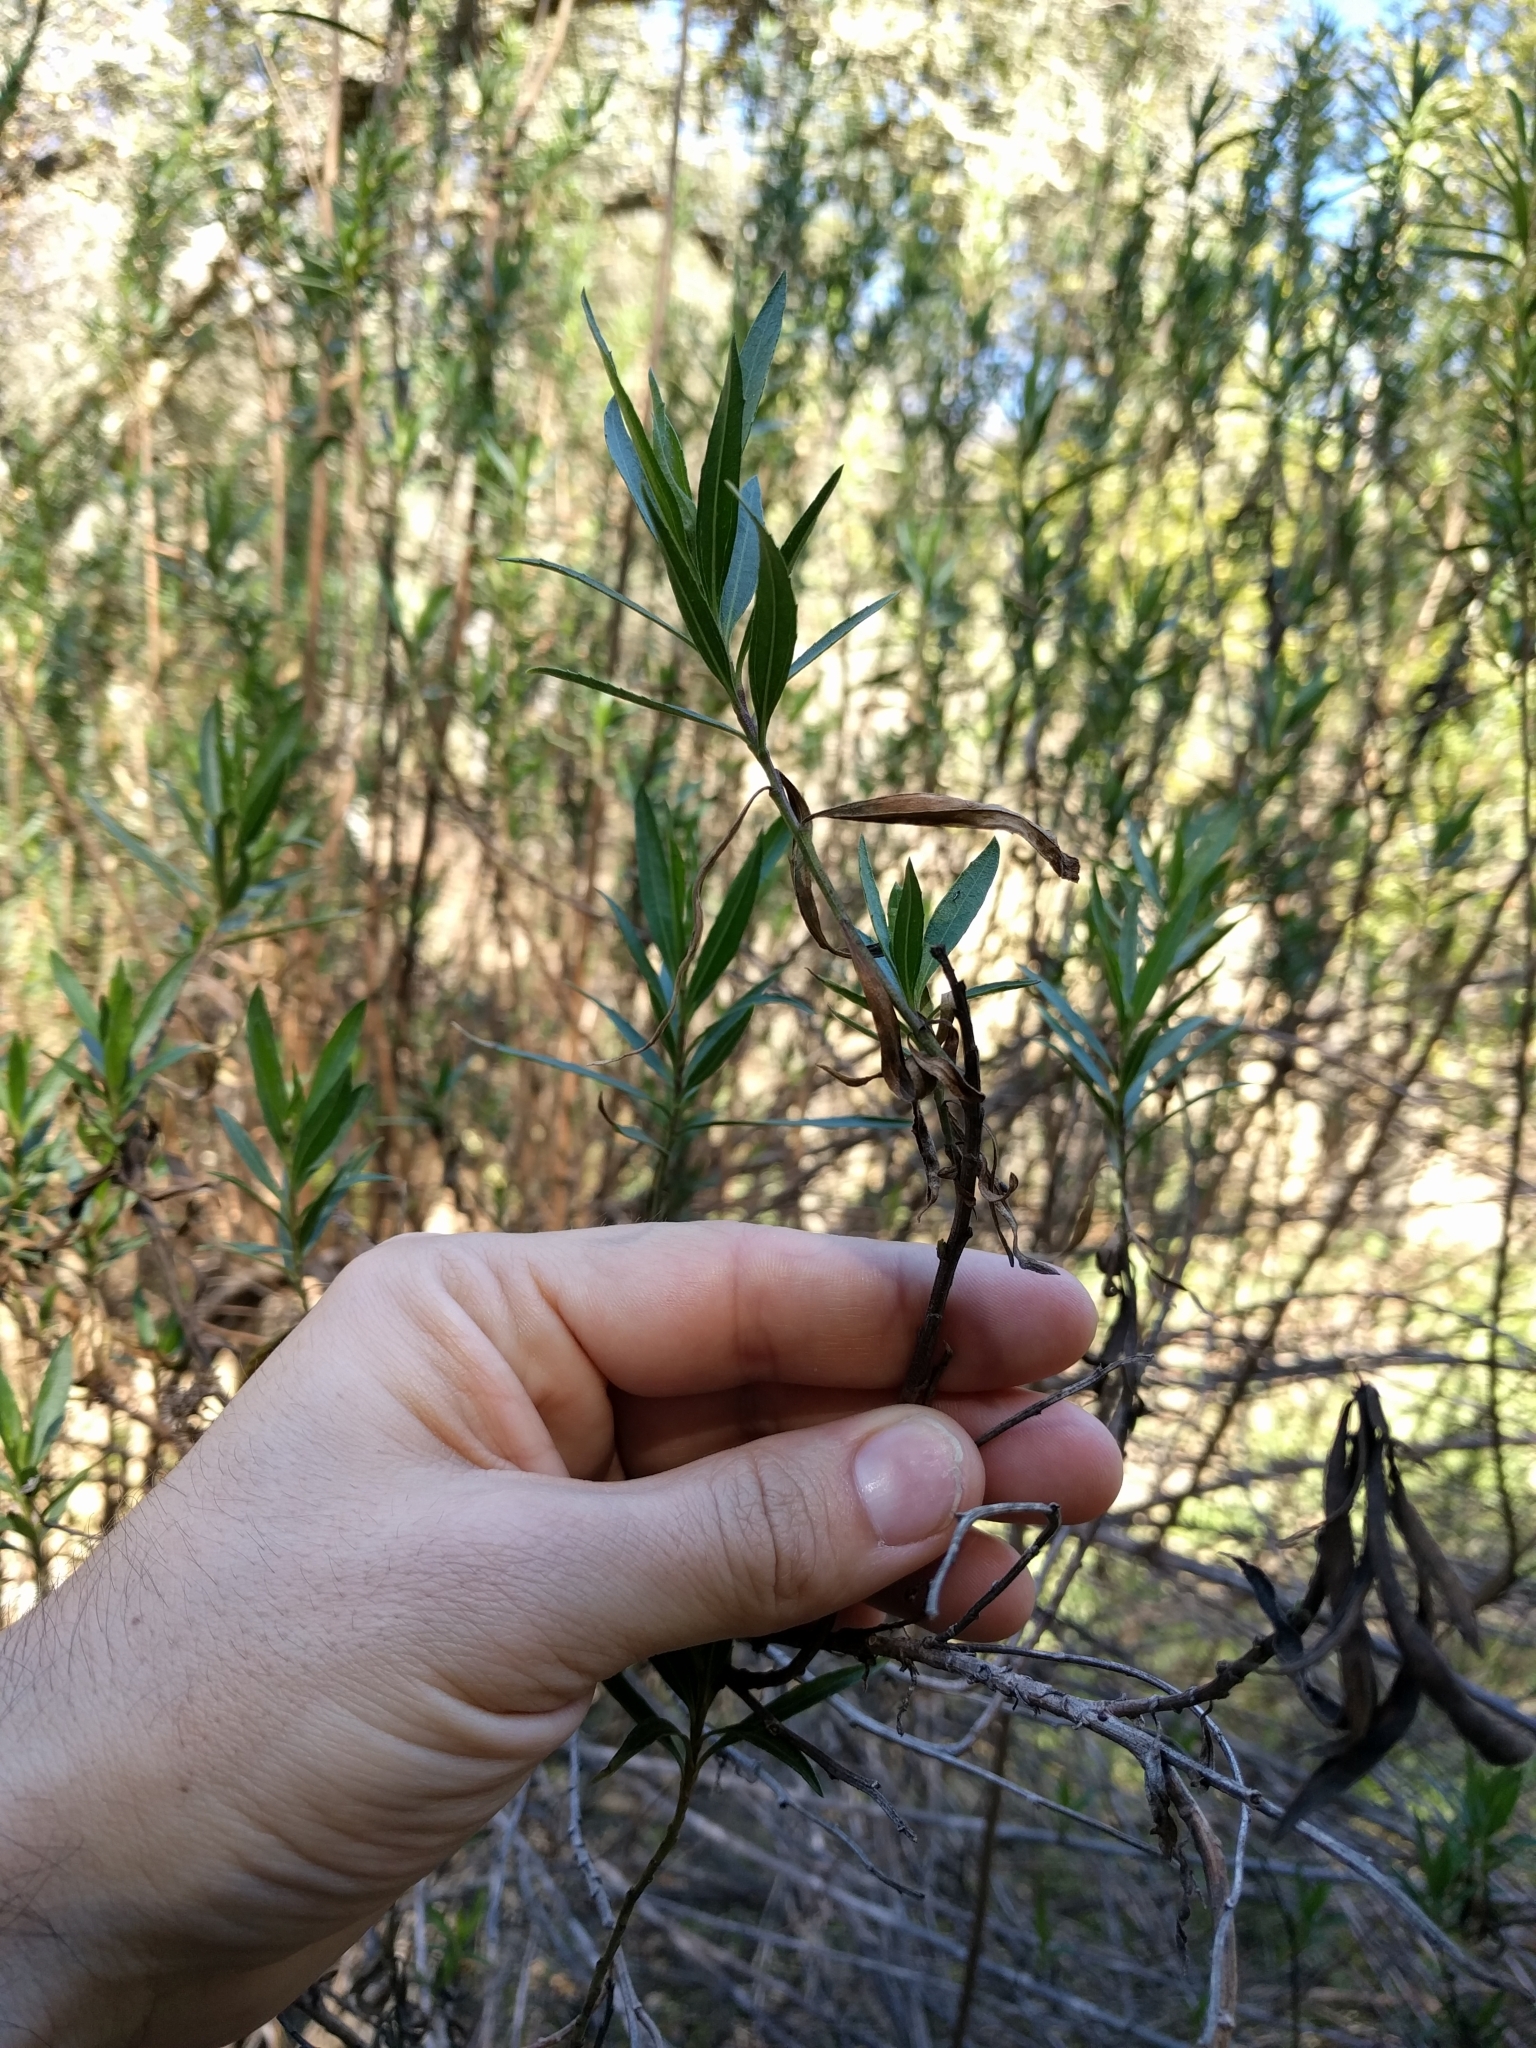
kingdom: Plantae
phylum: Tracheophyta
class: Magnoliopsida
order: Asterales
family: Asteraceae
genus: Baccharis
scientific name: Baccharis salicifolia
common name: Sticky baccharis
